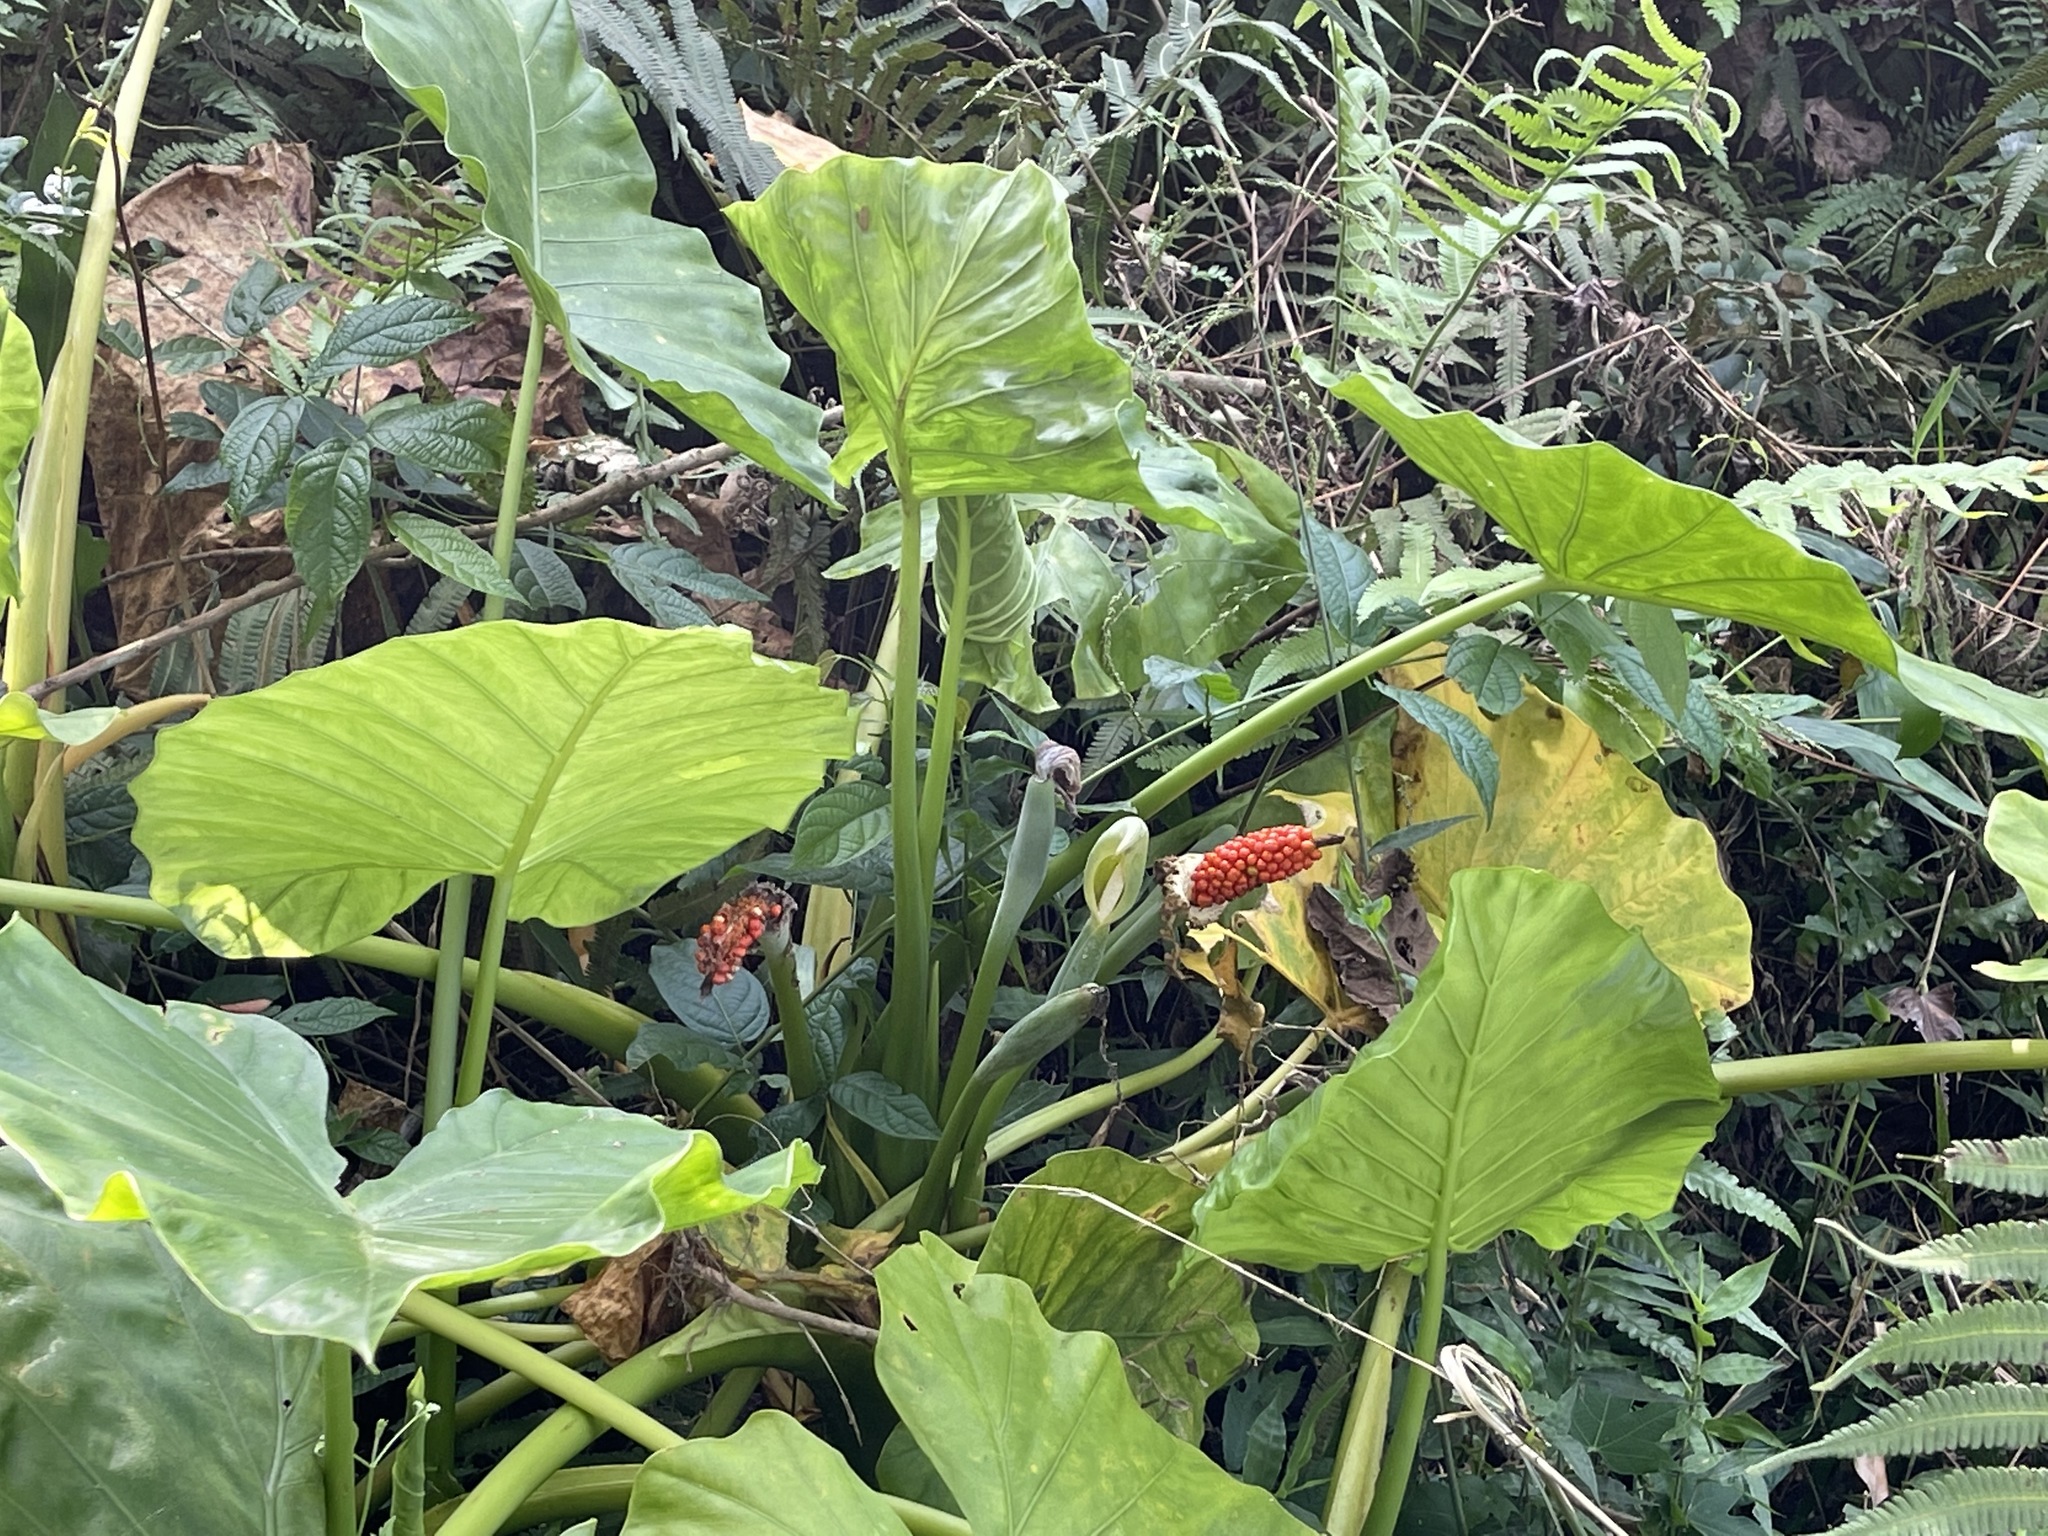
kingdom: Plantae
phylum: Tracheophyta
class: Liliopsida
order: Alismatales
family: Araceae
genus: Alocasia
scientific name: Alocasia odora
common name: Asian taro
